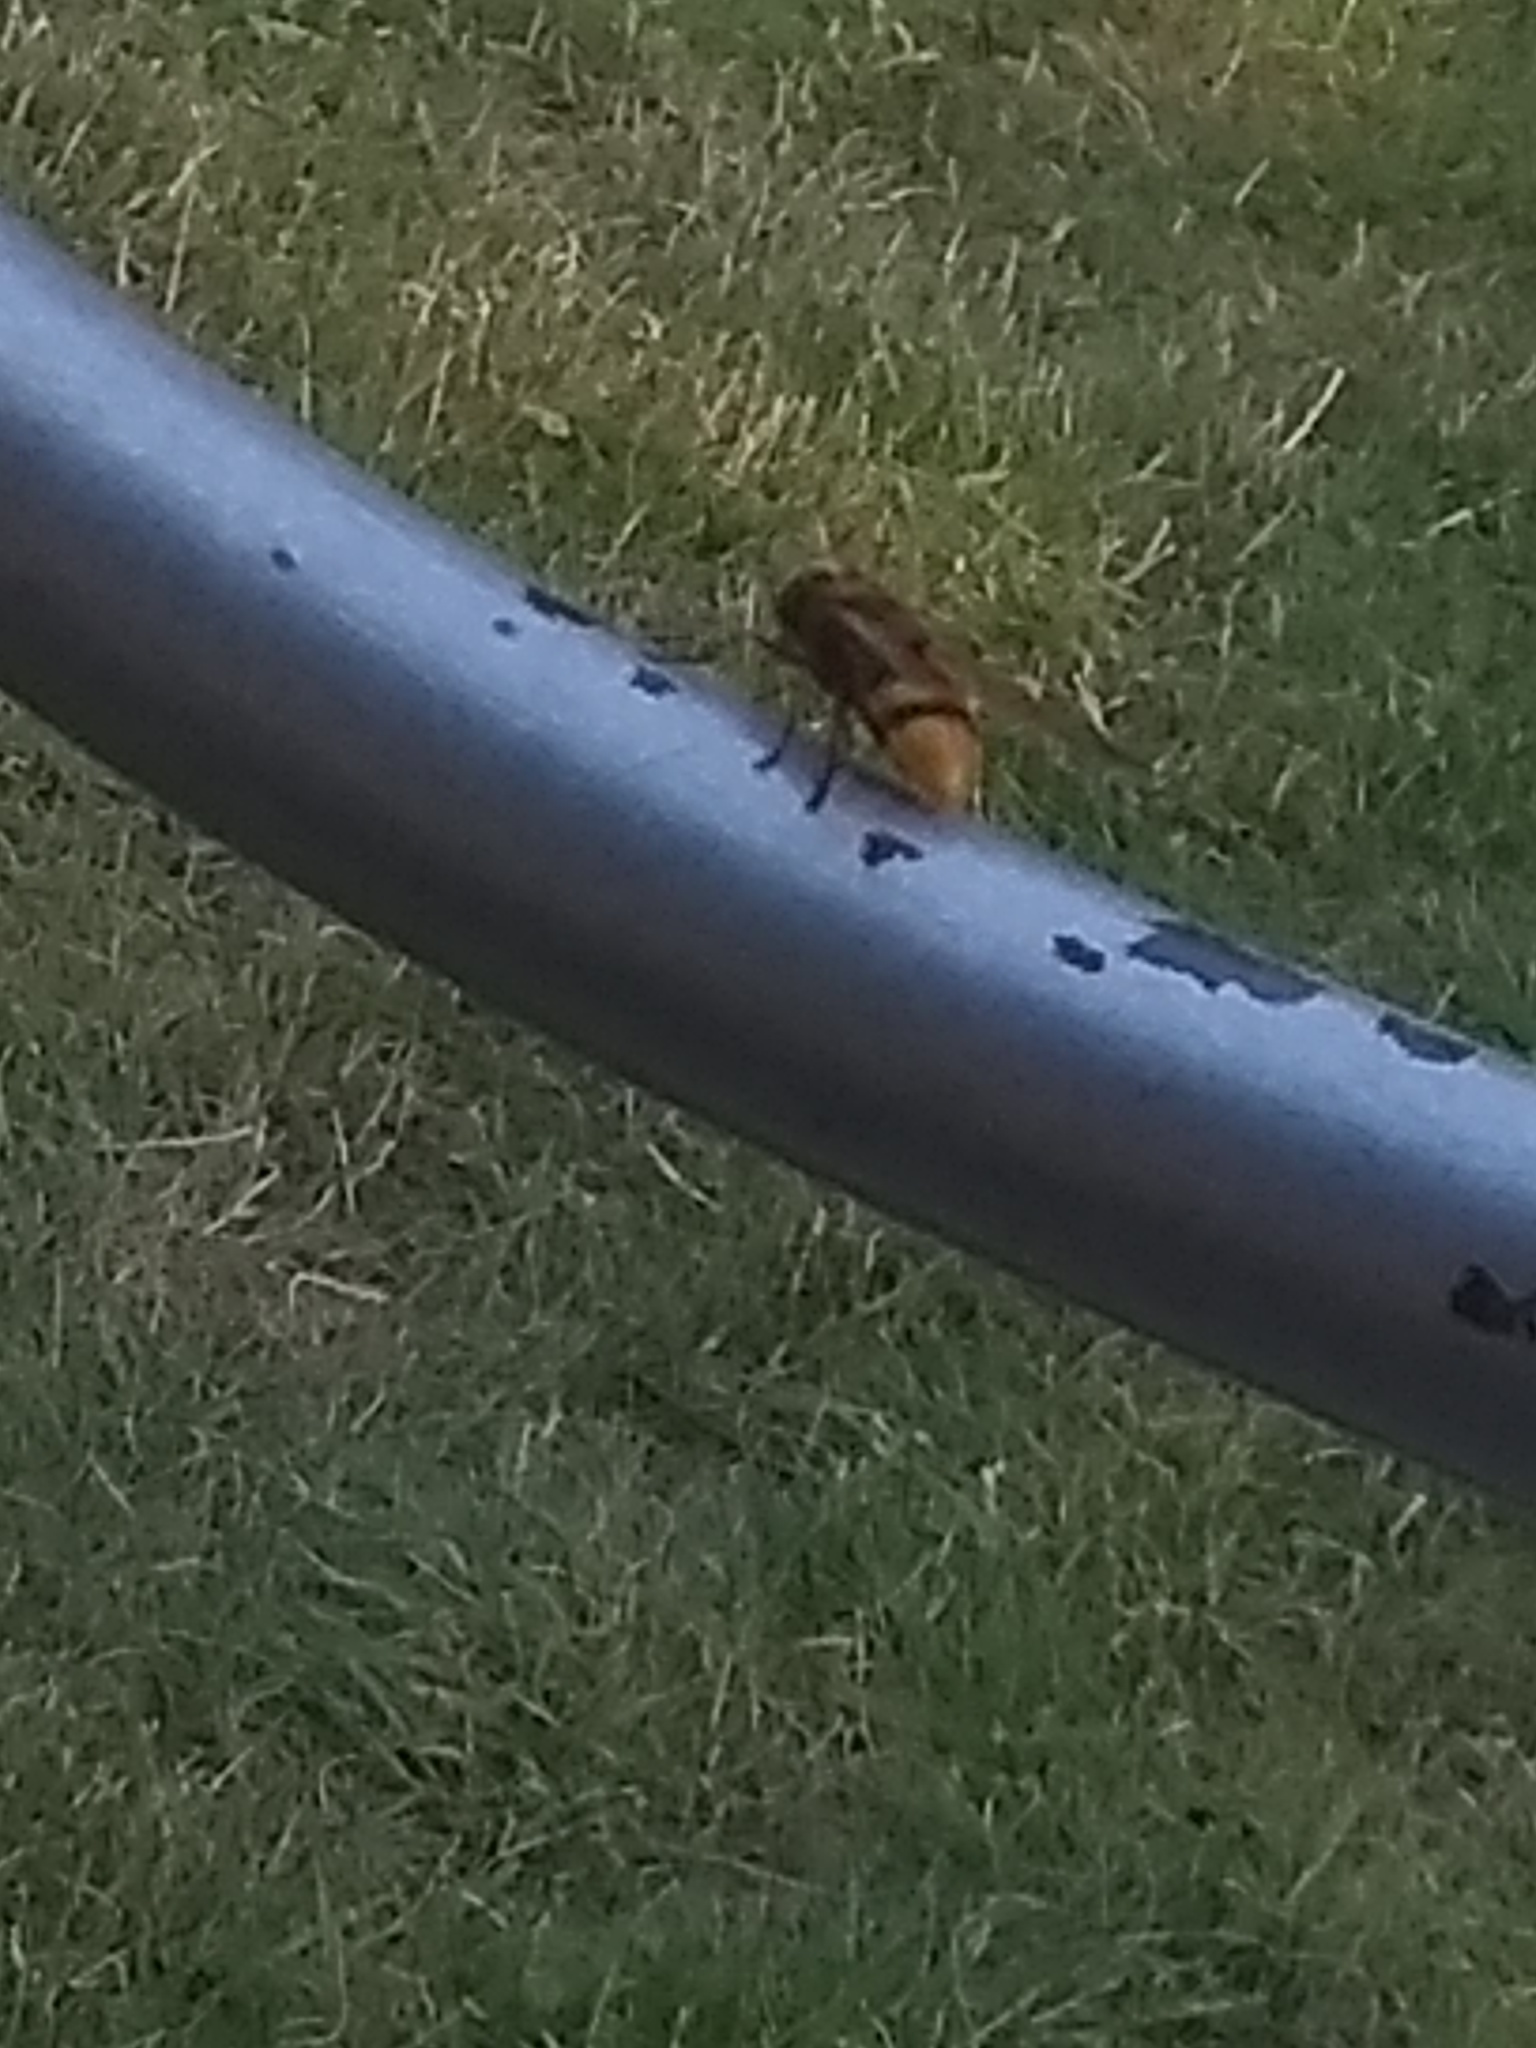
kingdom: Animalia
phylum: Arthropoda
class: Insecta
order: Diptera
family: Syrphidae
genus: Volucella
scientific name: Volucella zonaria
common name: Hornet hoverfly
